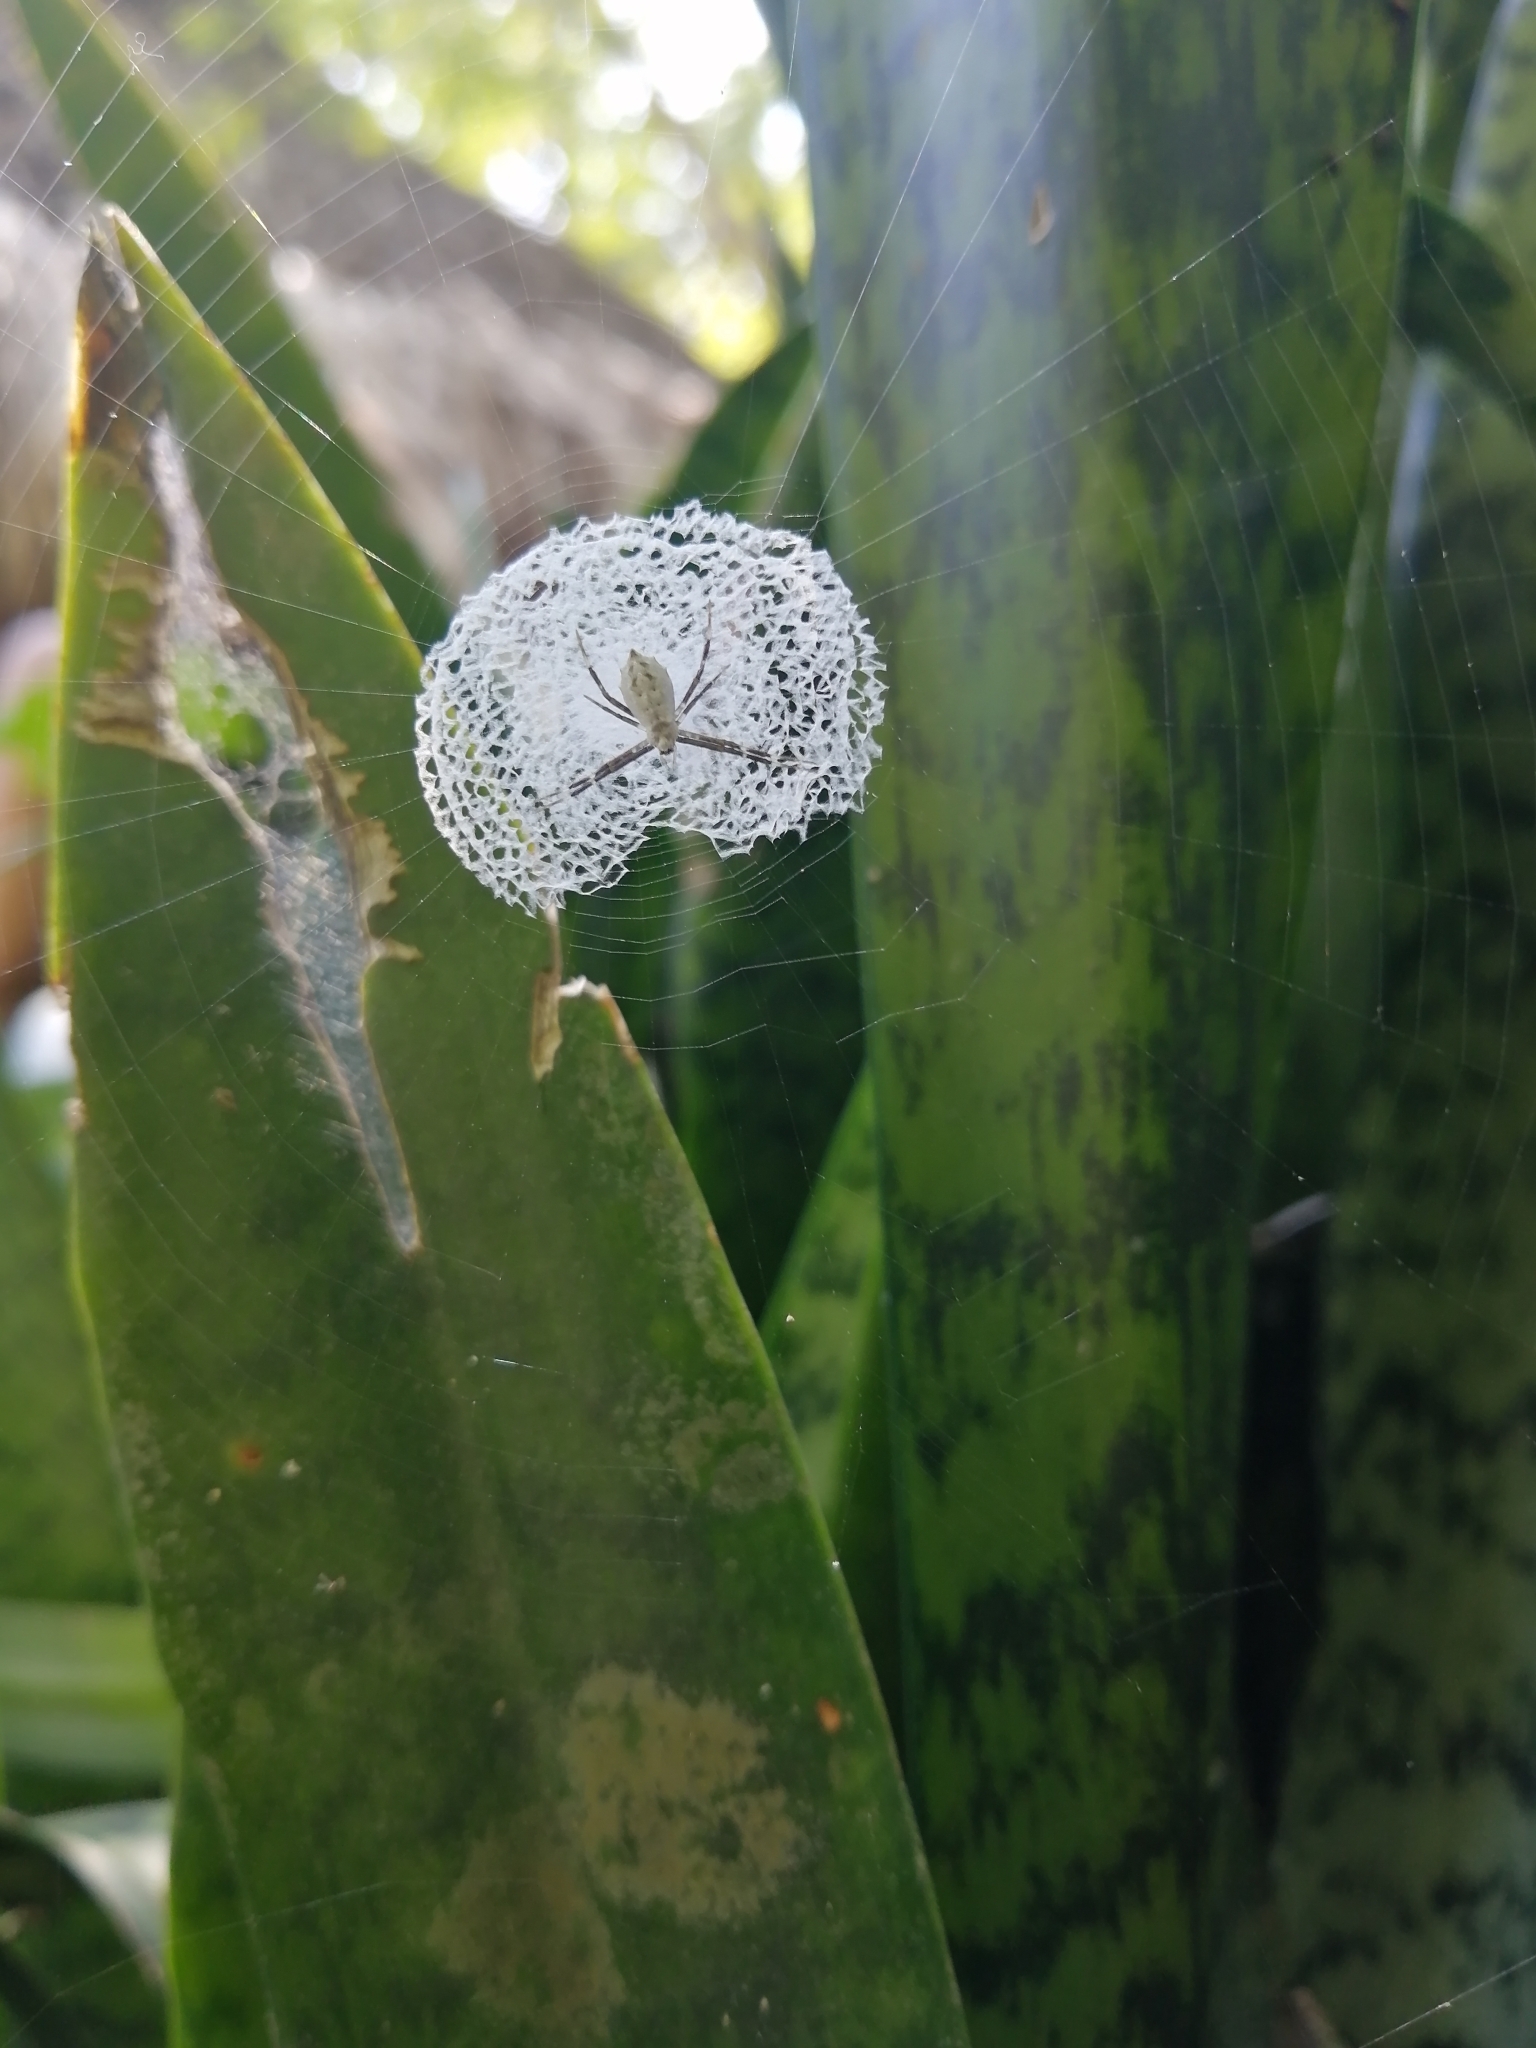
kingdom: Animalia
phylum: Arthropoda
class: Arachnida
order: Araneae
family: Araneidae
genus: Argiope
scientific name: Argiope submaronica
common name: Orb weavers
